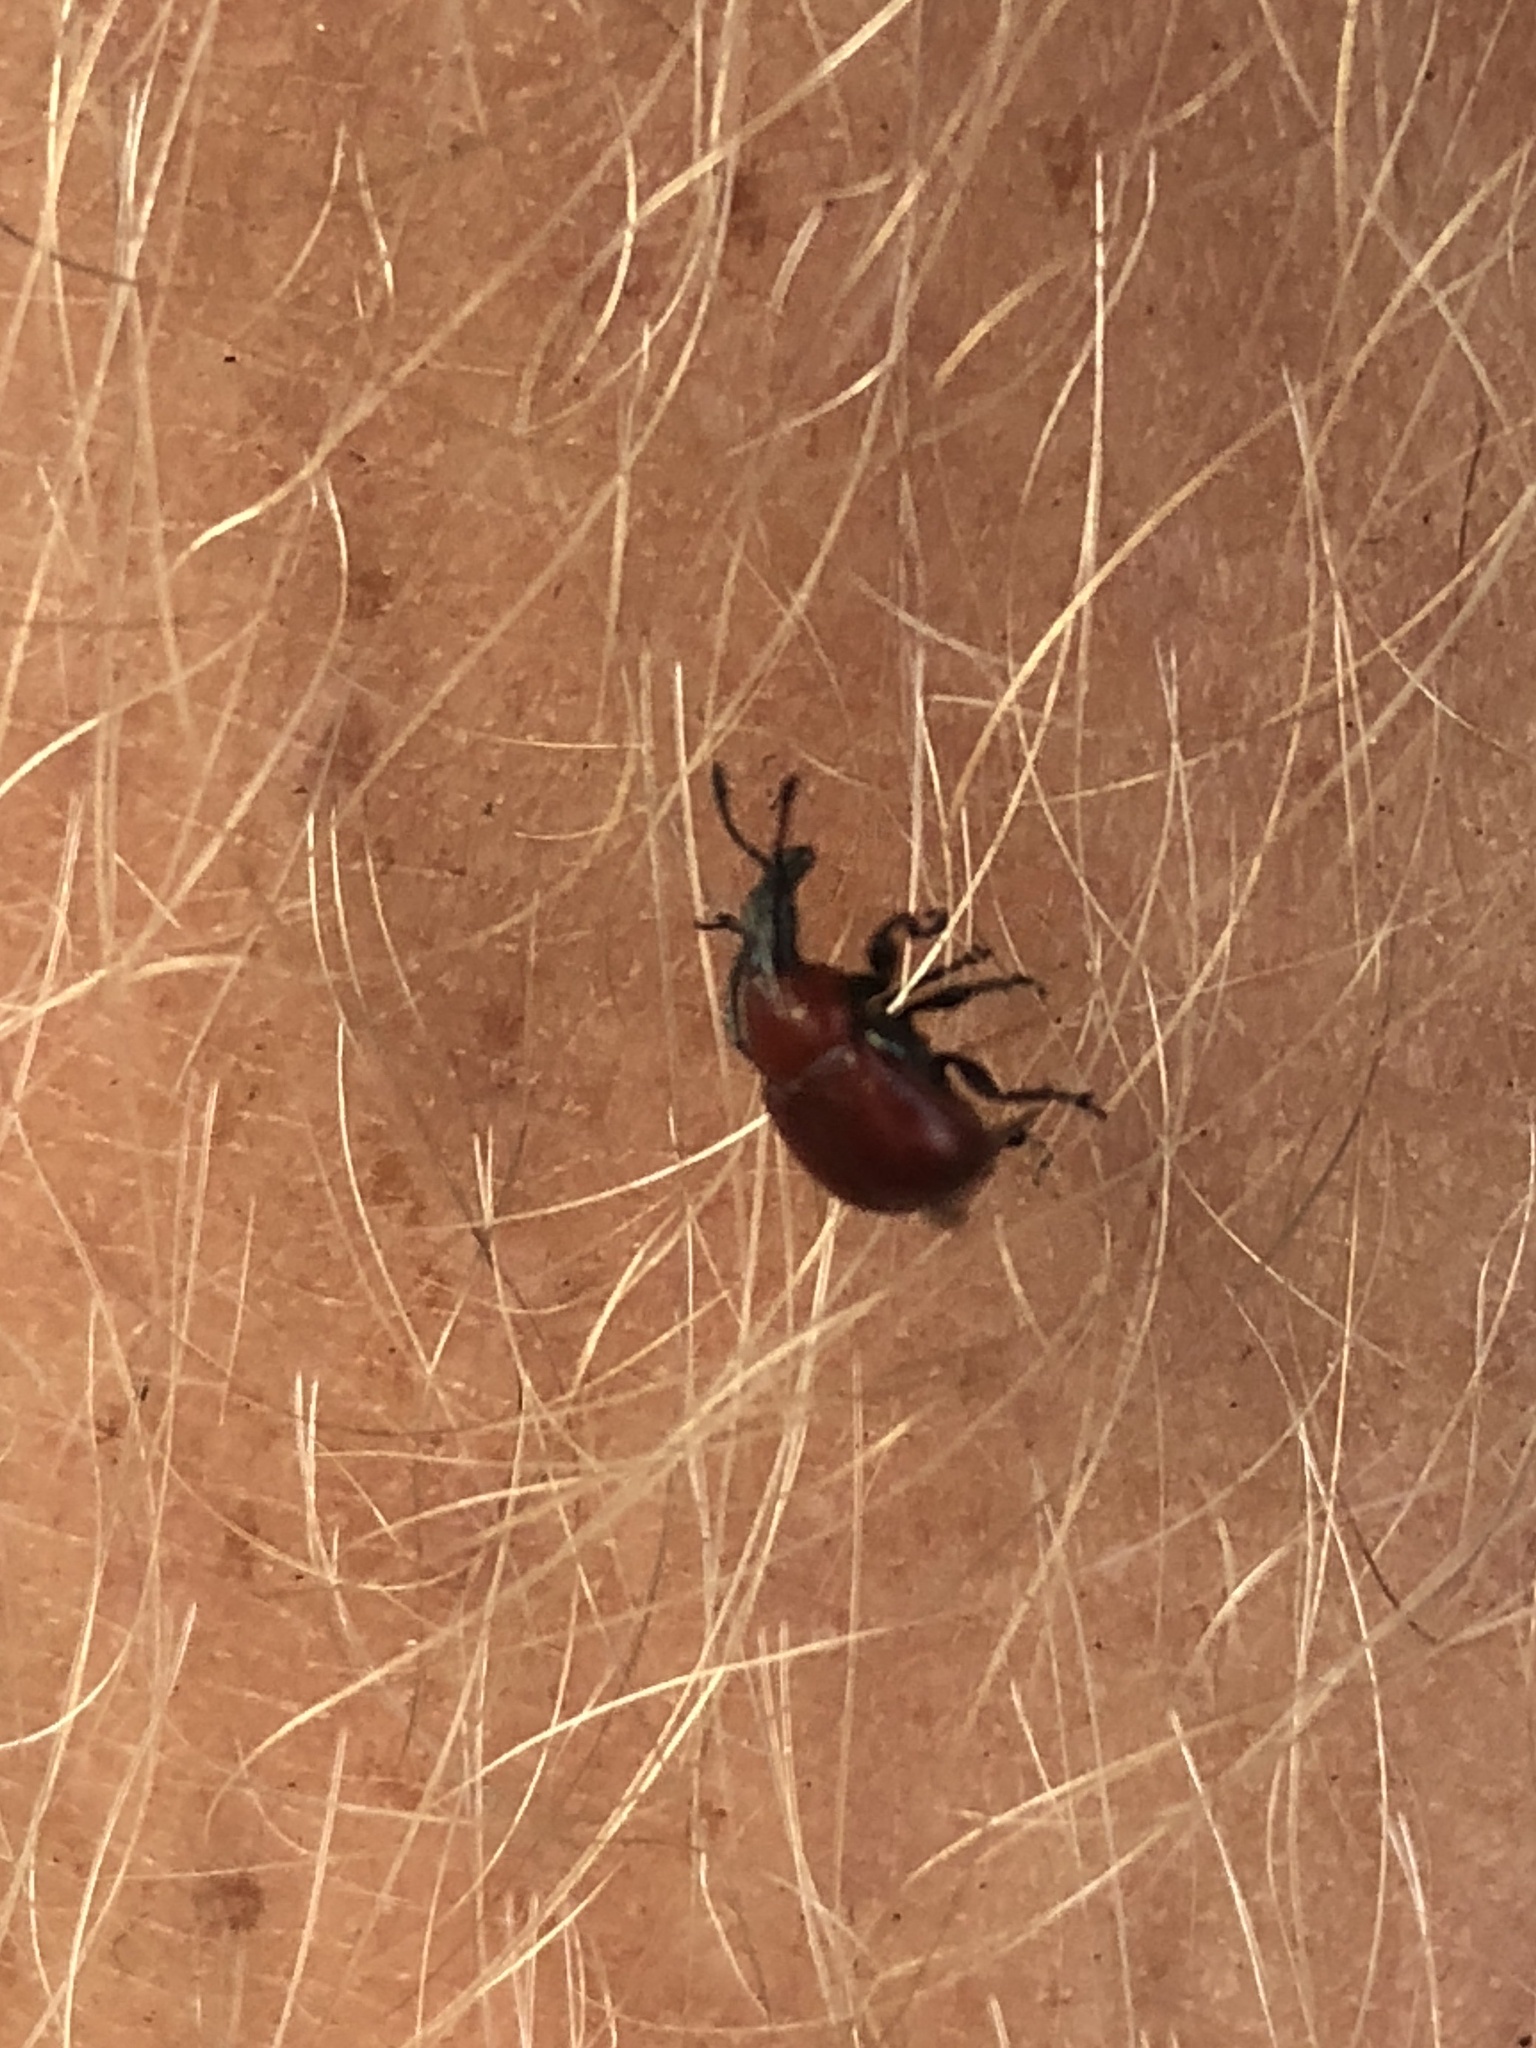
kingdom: Animalia
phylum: Arthropoda
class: Insecta
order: Coleoptera
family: Attelabidae
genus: Homoeolabus
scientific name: Homoeolabus analis
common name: Oak leaf rolling weevil
